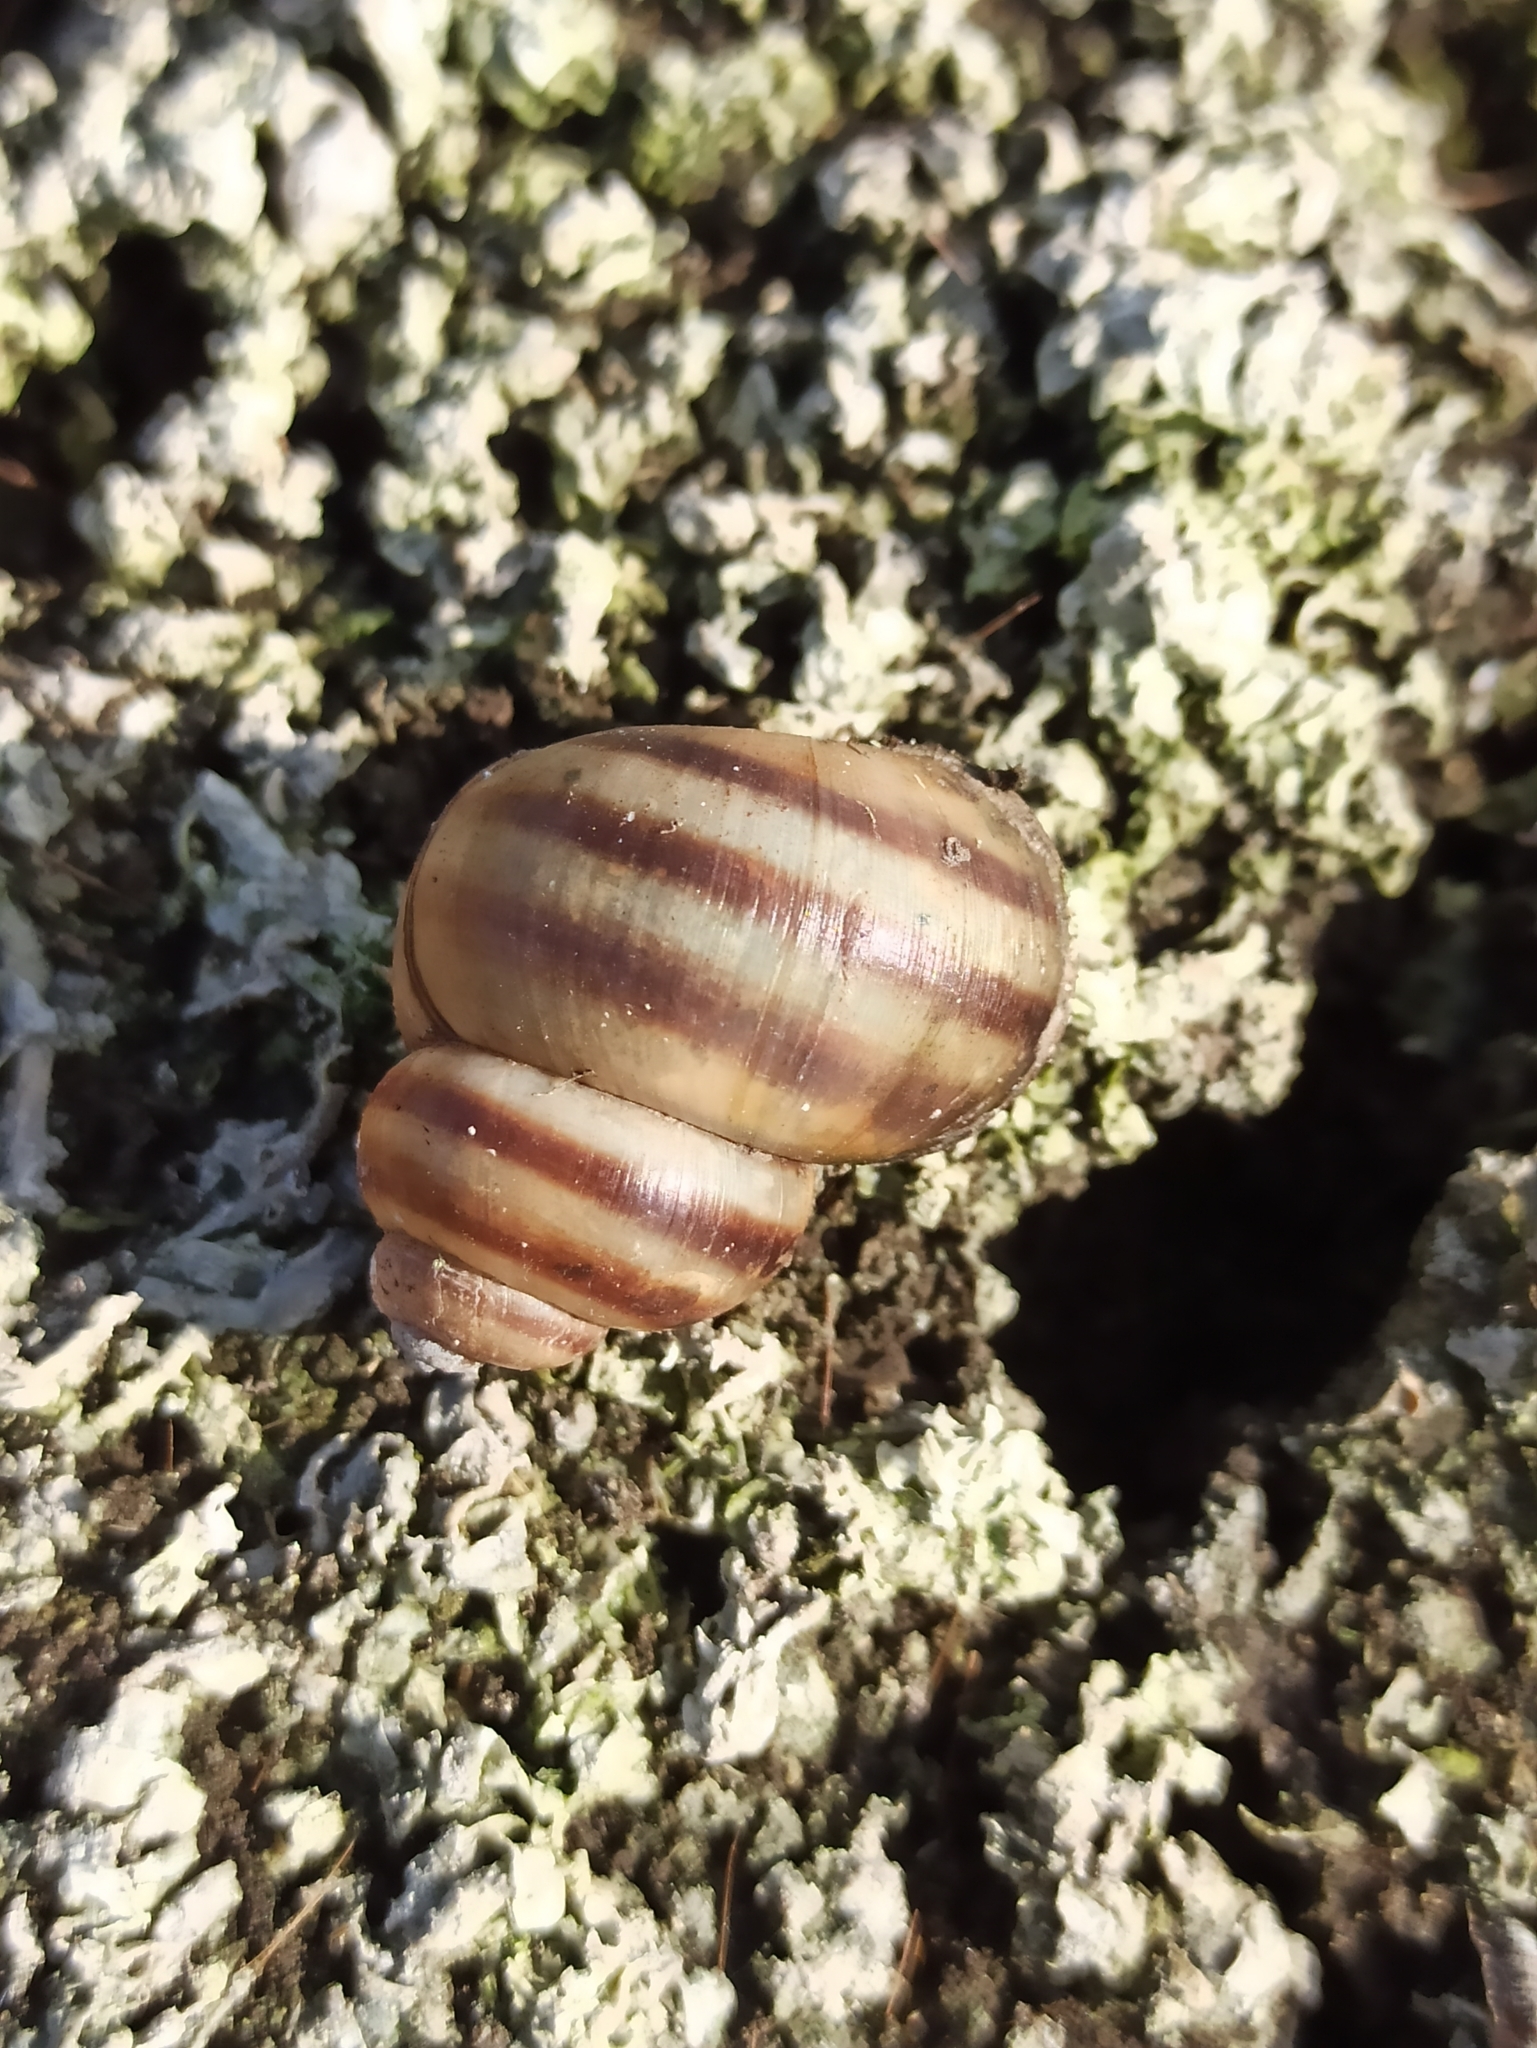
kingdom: Animalia
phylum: Mollusca
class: Gastropoda
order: Architaenioglossa
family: Viviparidae
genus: Viviparus
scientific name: Viviparus viviparus
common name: River snail
